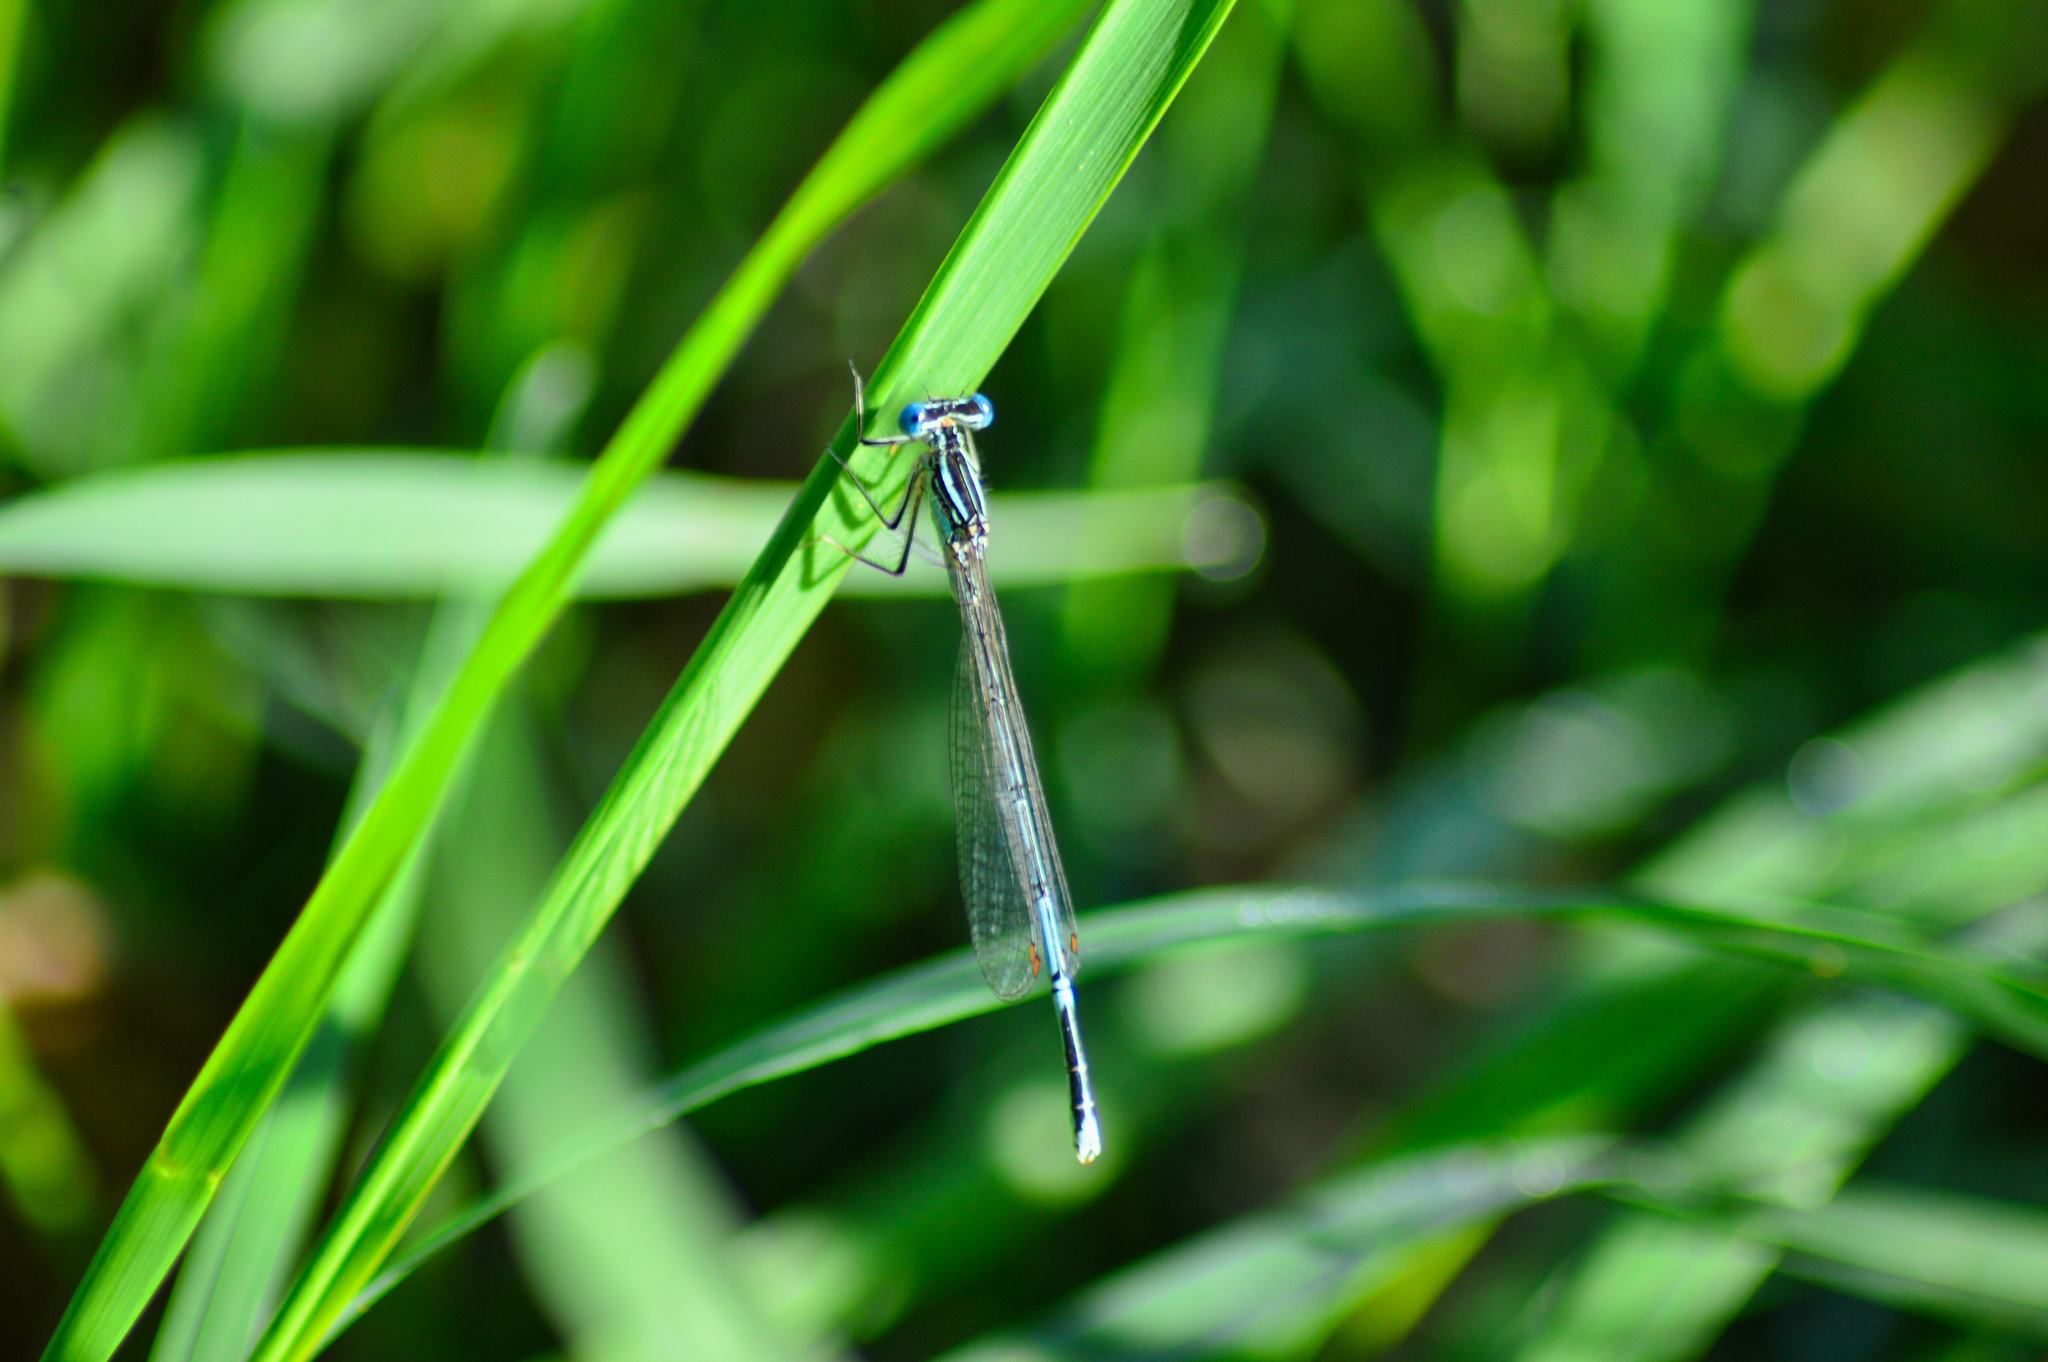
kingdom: Animalia
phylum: Arthropoda
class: Insecta
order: Odonata
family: Platycnemididae
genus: Platycnemis
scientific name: Platycnemis pennipes
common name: White-legged damselfly
